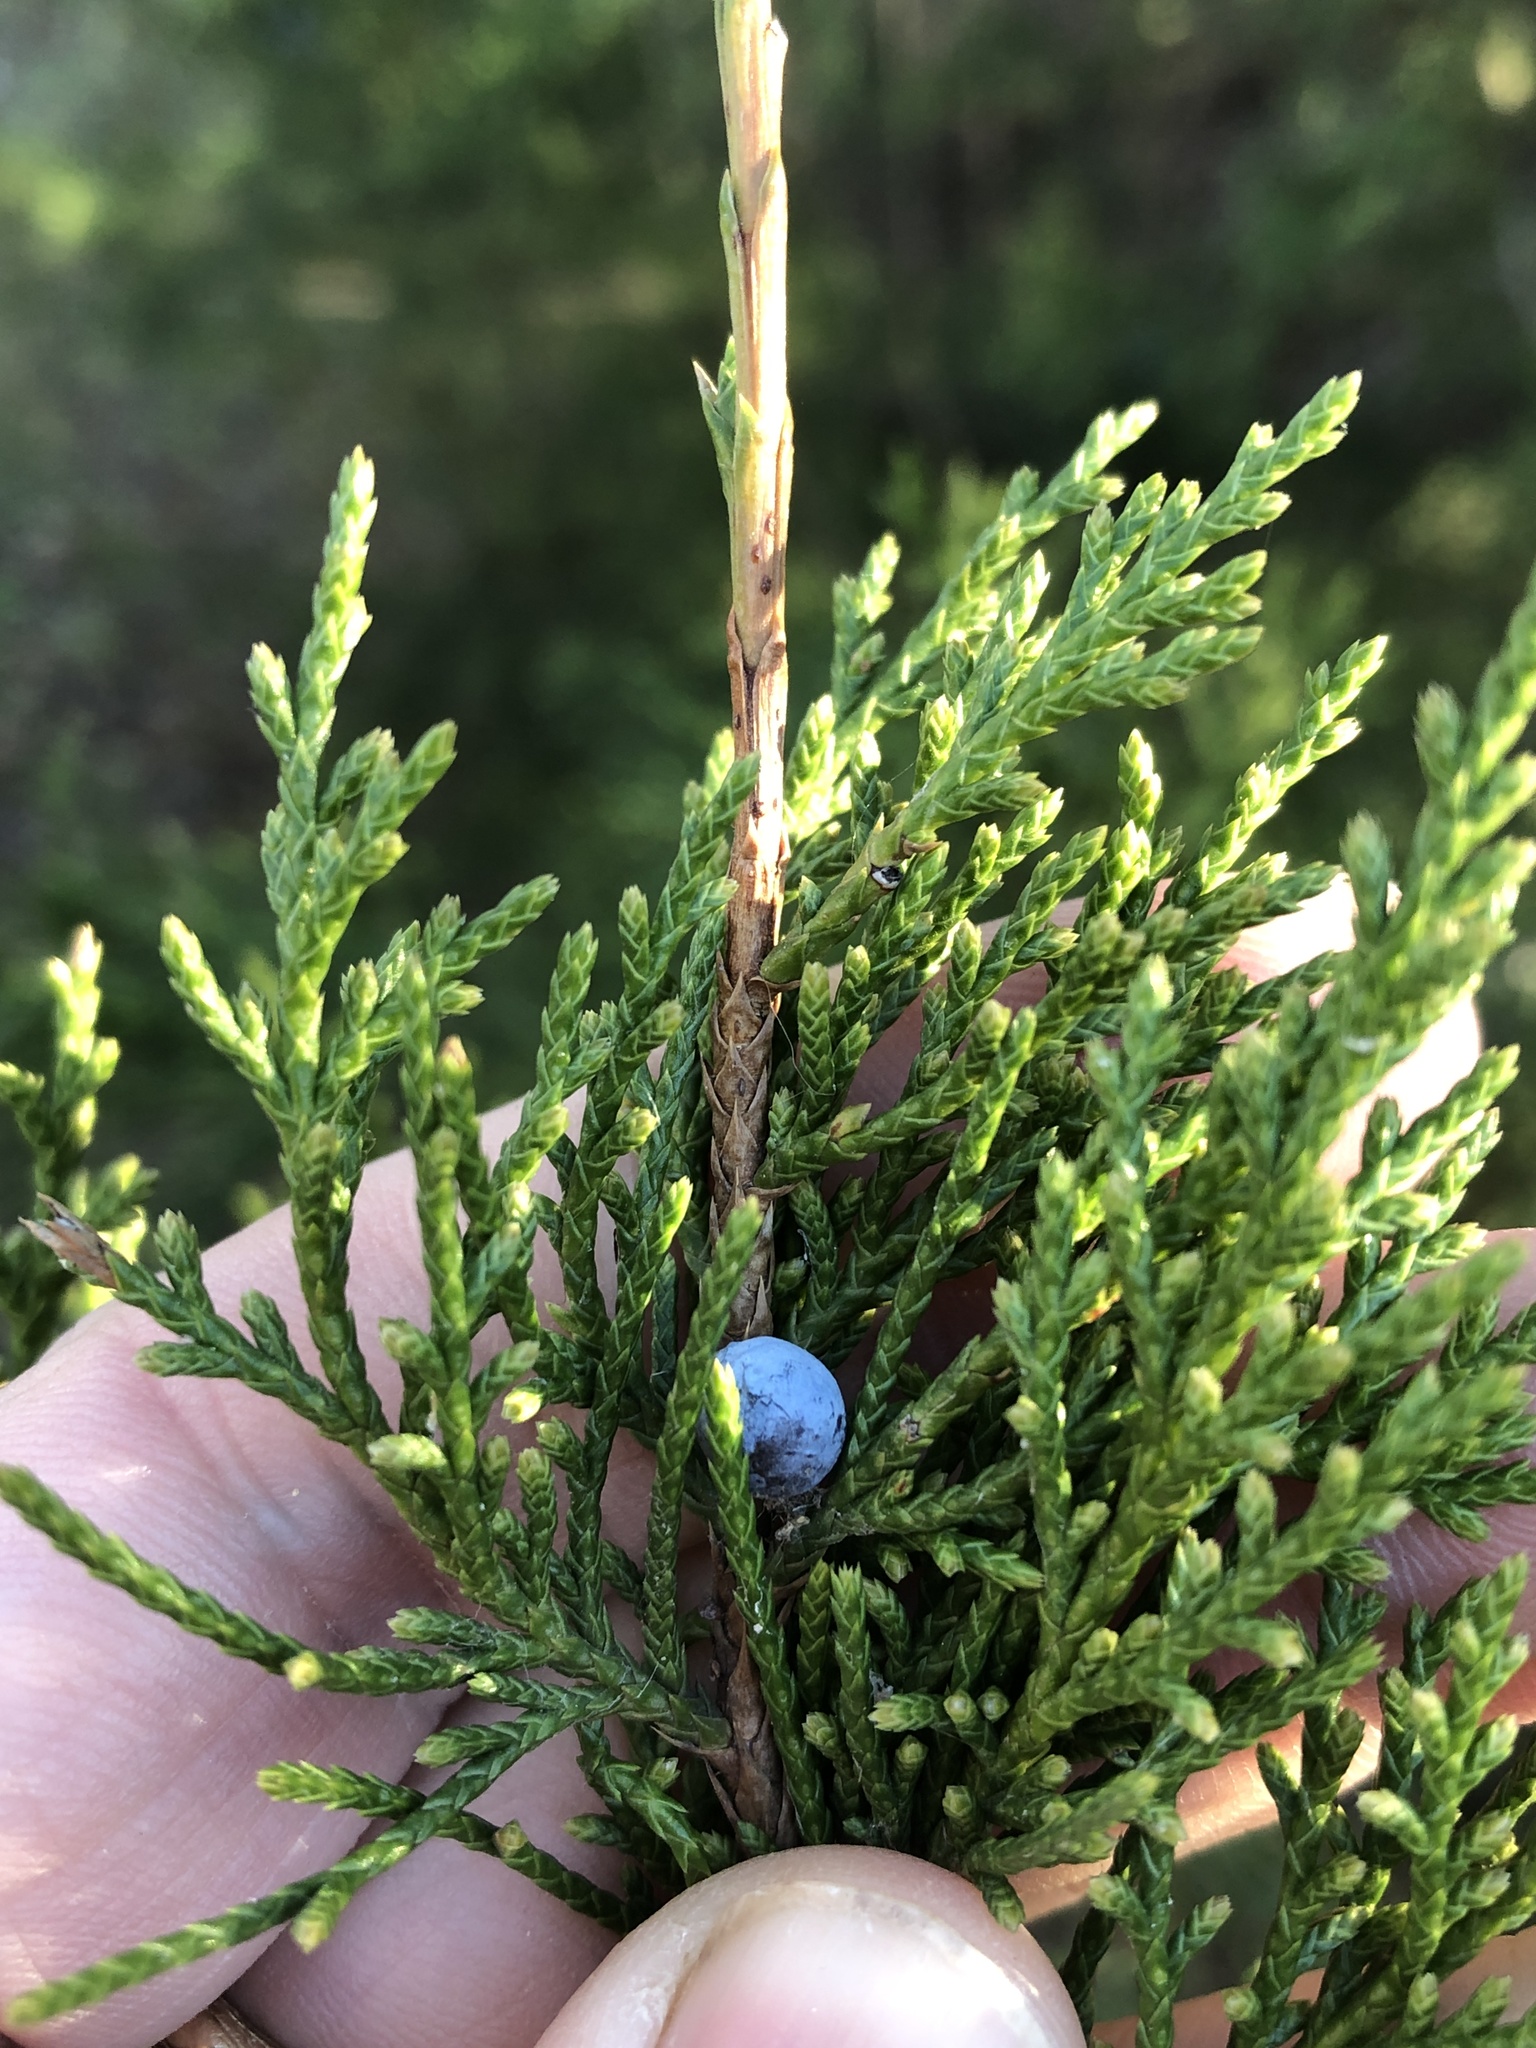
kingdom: Plantae
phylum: Tracheophyta
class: Pinopsida
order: Pinales
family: Cupressaceae
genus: Juniperus
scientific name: Juniperus virginiana
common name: Red juniper
